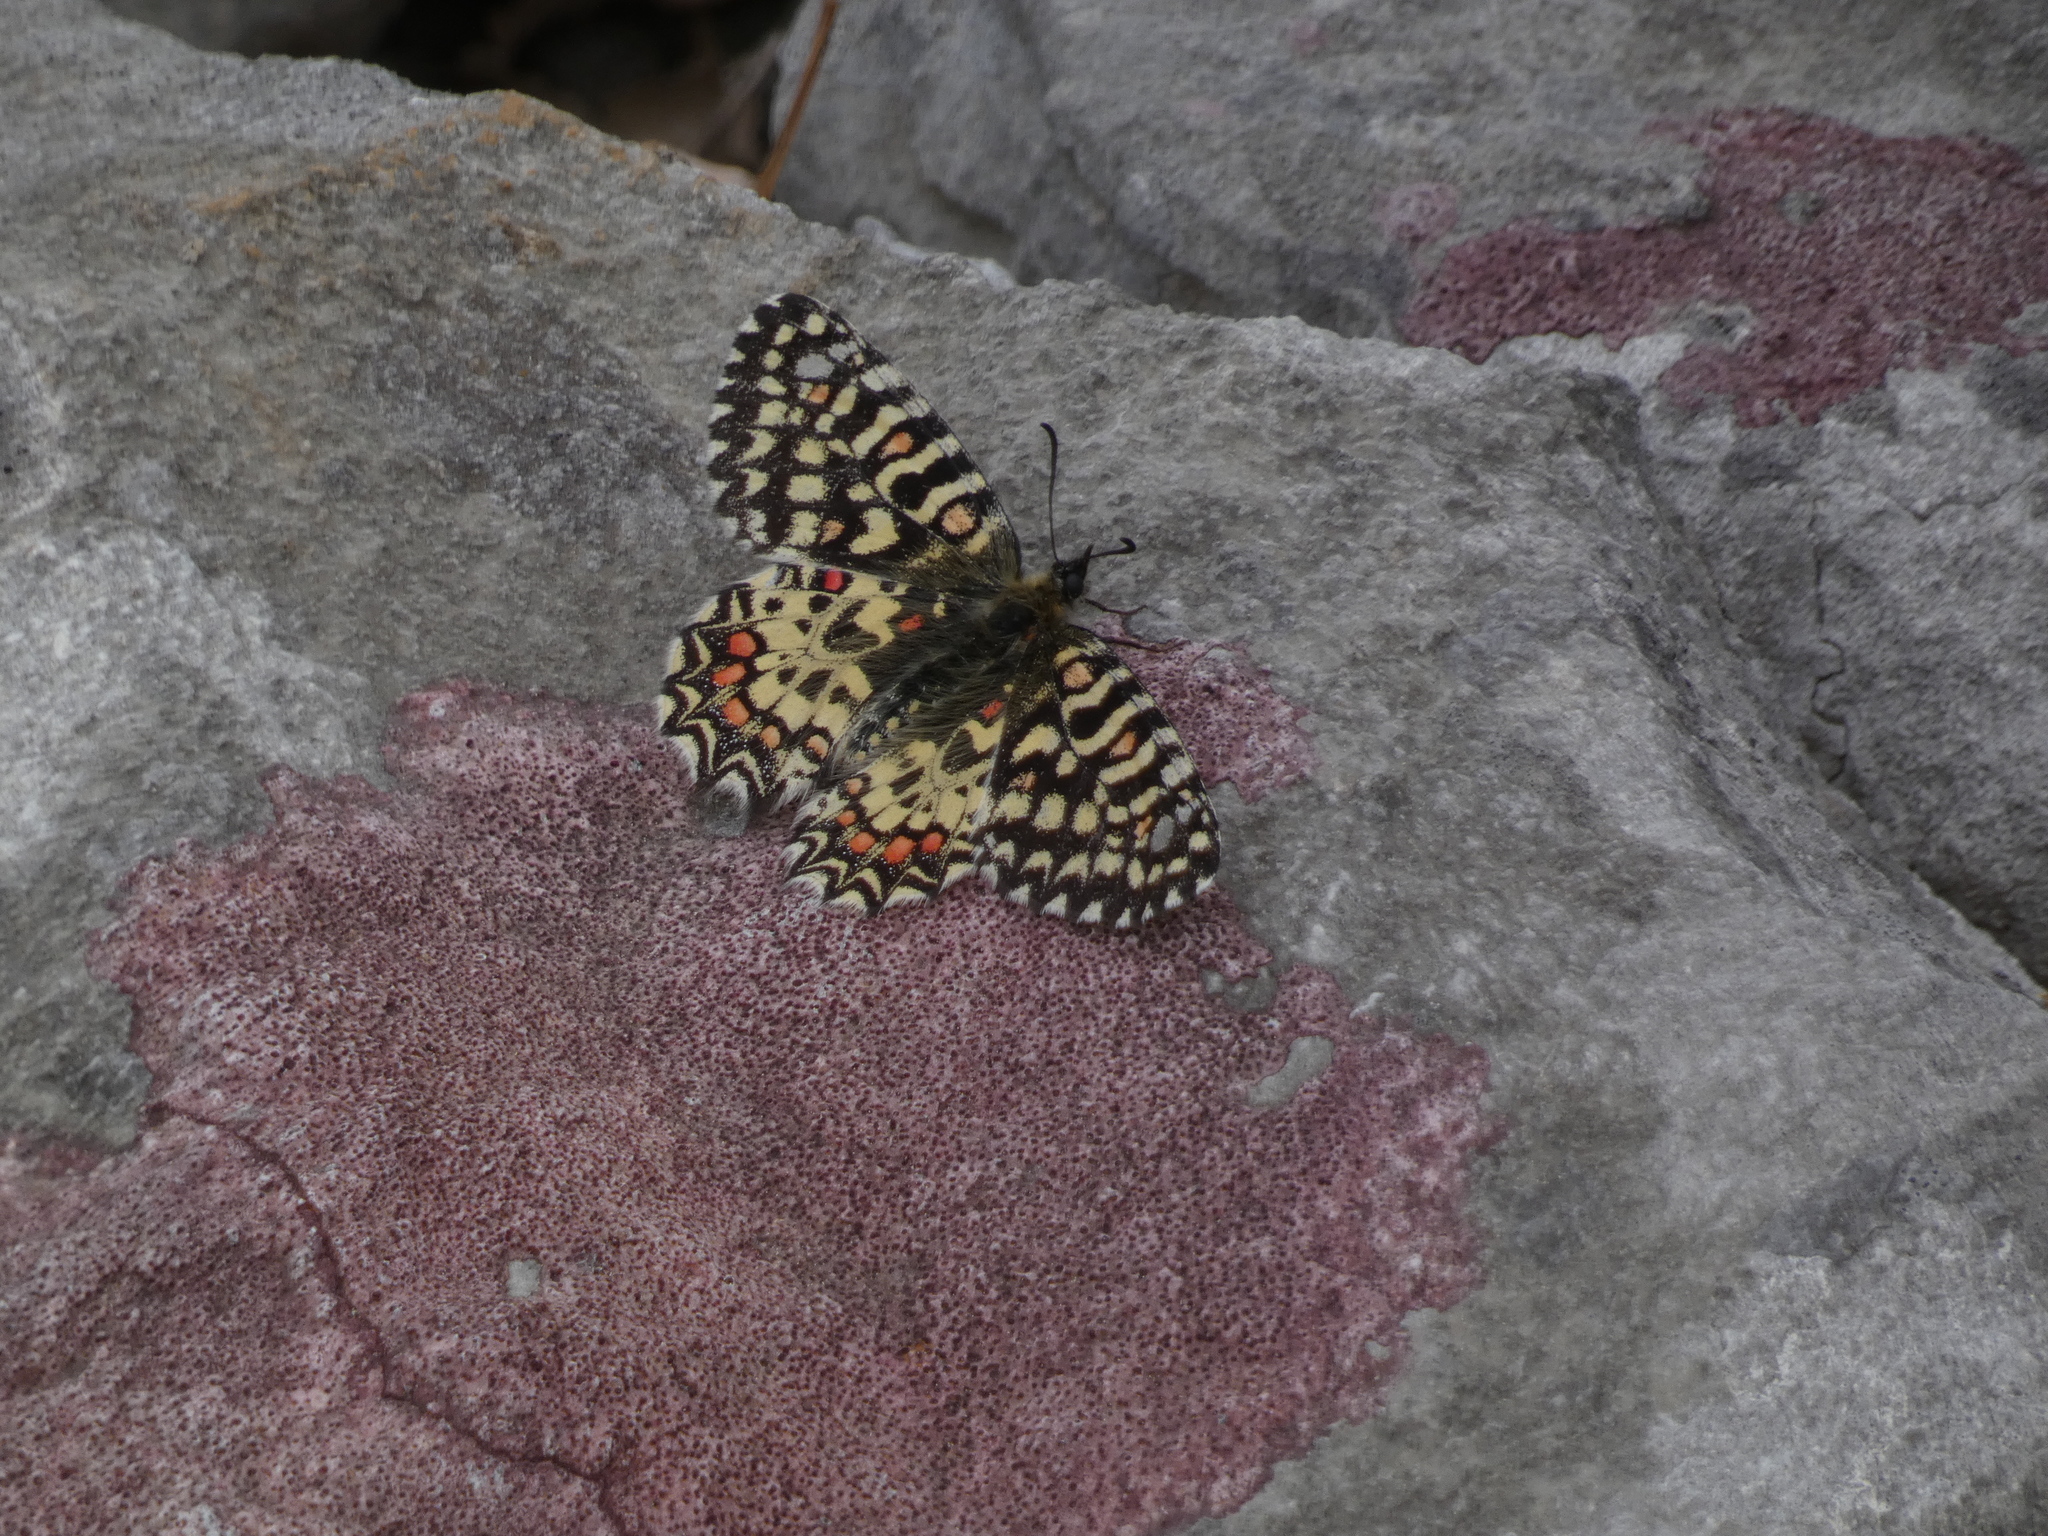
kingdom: Animalia
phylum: Arthropoda
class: Insecta
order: Lepidoptera
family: Papilionidae
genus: Zerynthia
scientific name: Zerynthia rumina
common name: Spanish festoon
